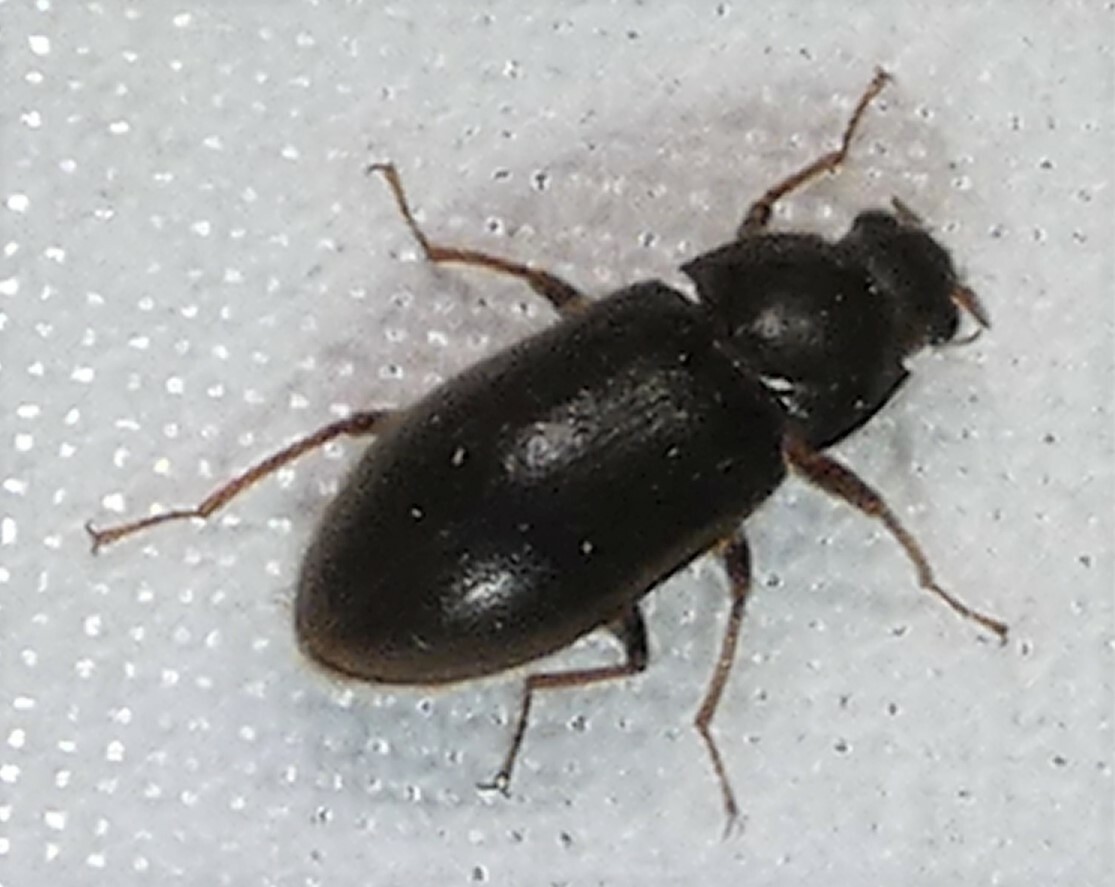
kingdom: Animalia
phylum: Arthropoda
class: Insecta
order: Coleoptera
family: Dryopidae
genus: Pelonomus
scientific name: Pelonomus obscurus
